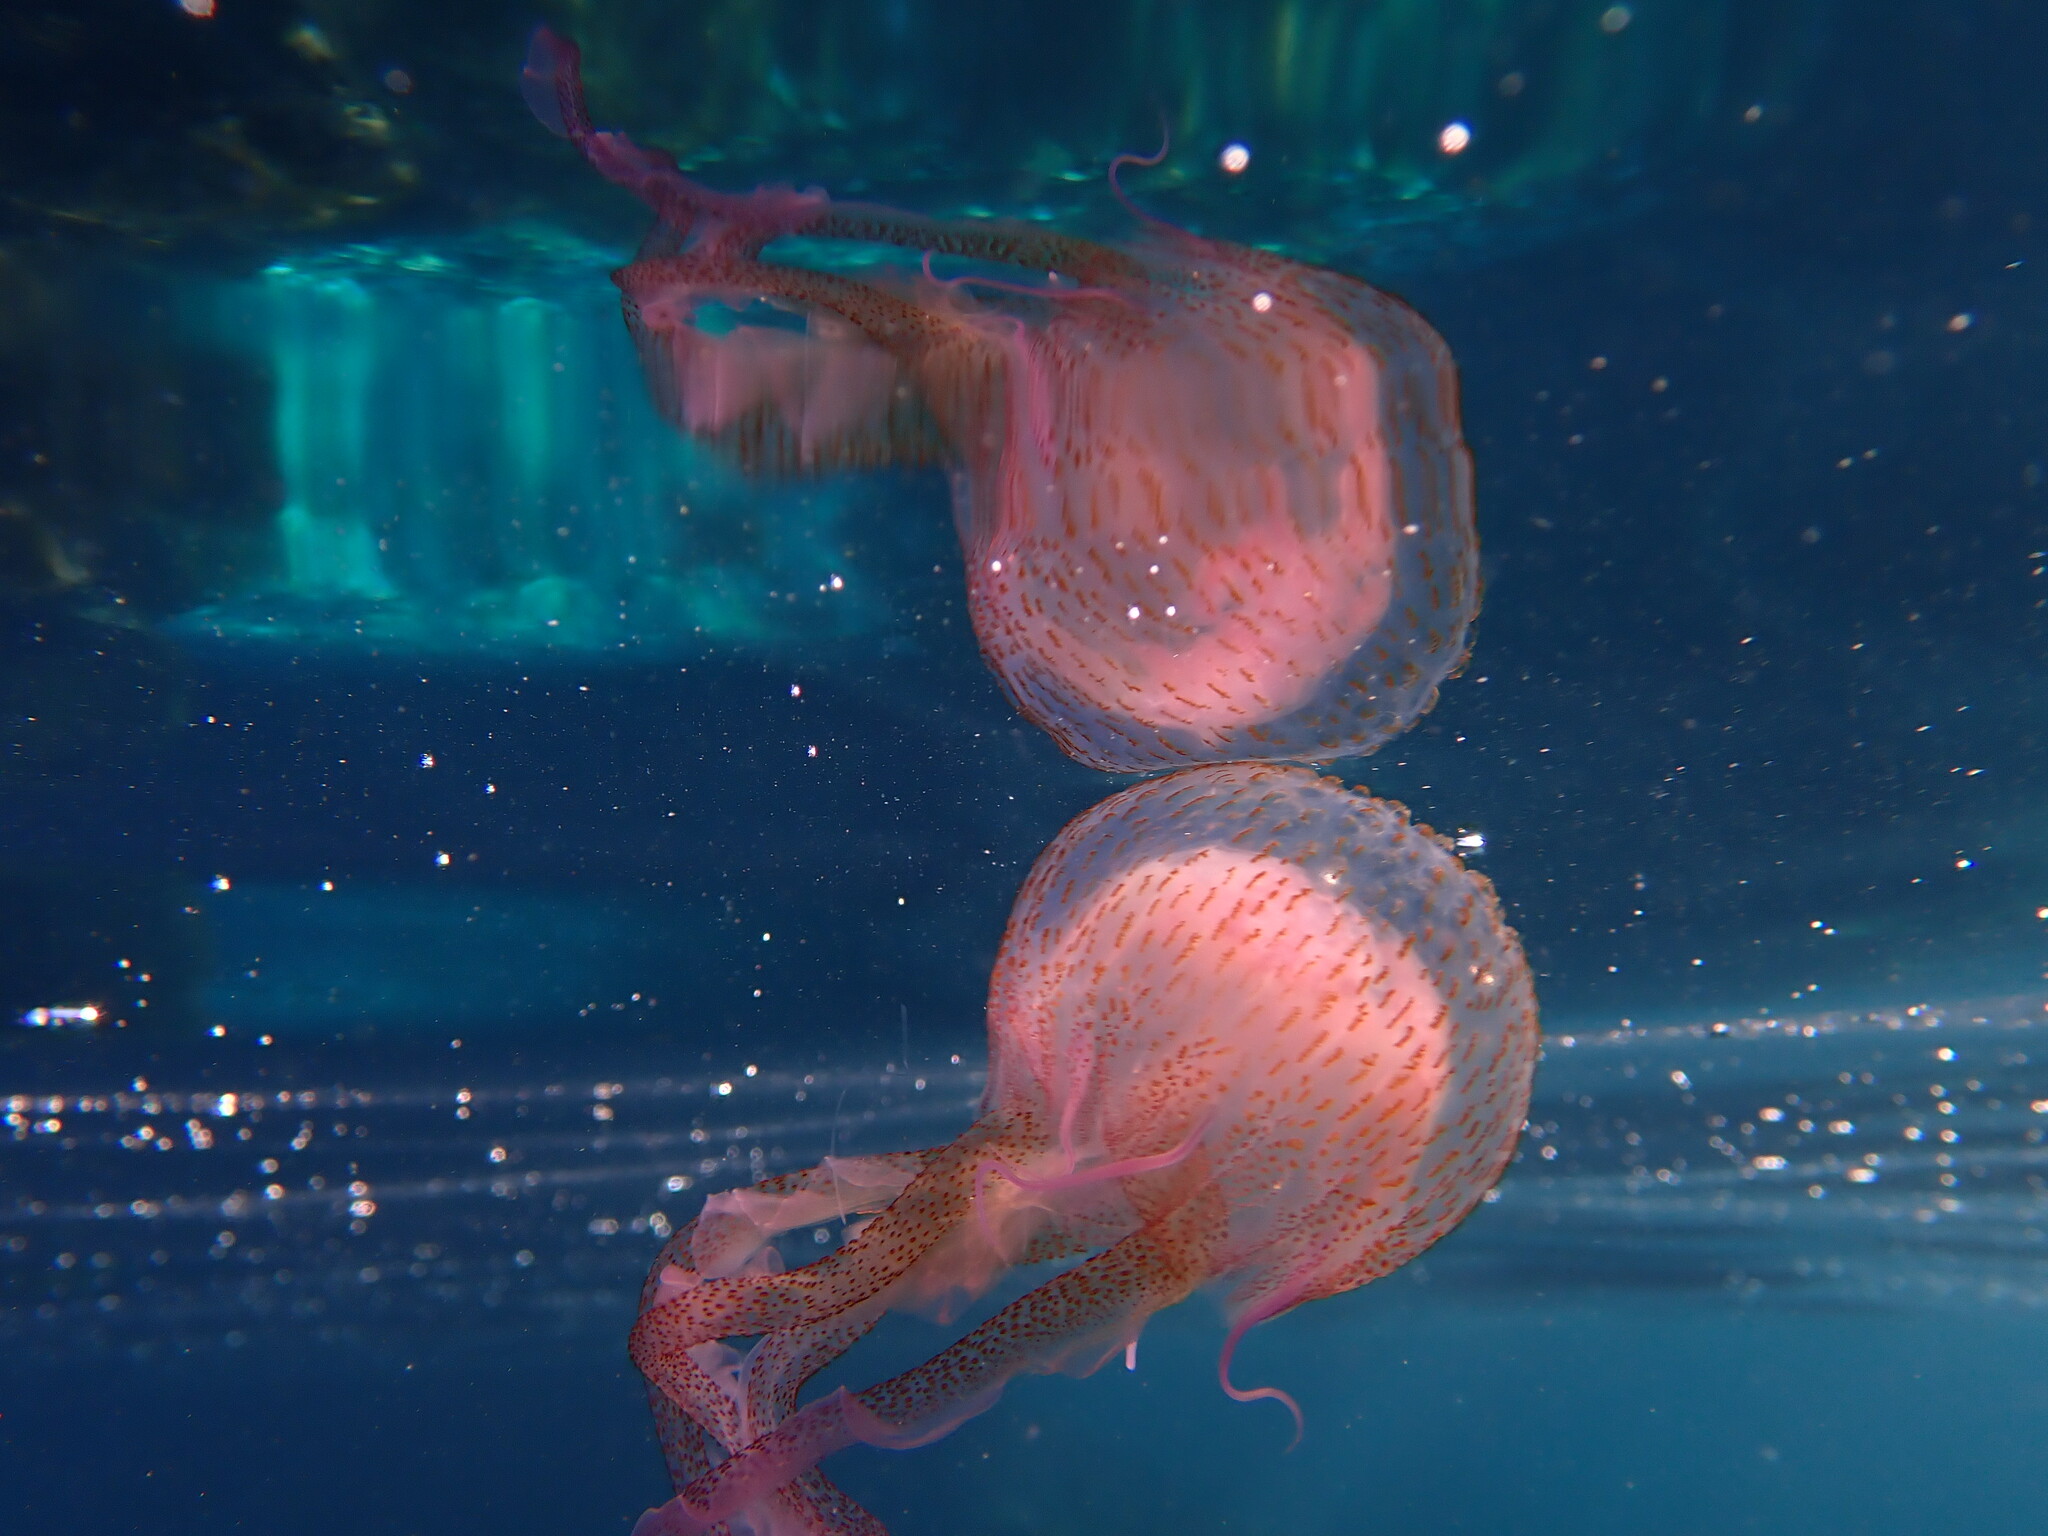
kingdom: Animalia
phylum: Cnidaria
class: Scyphozoa
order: Semaeostomeae
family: Pelagiidae
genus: Pelagia
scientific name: Pelagia noctiluca
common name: Mauve stinger
